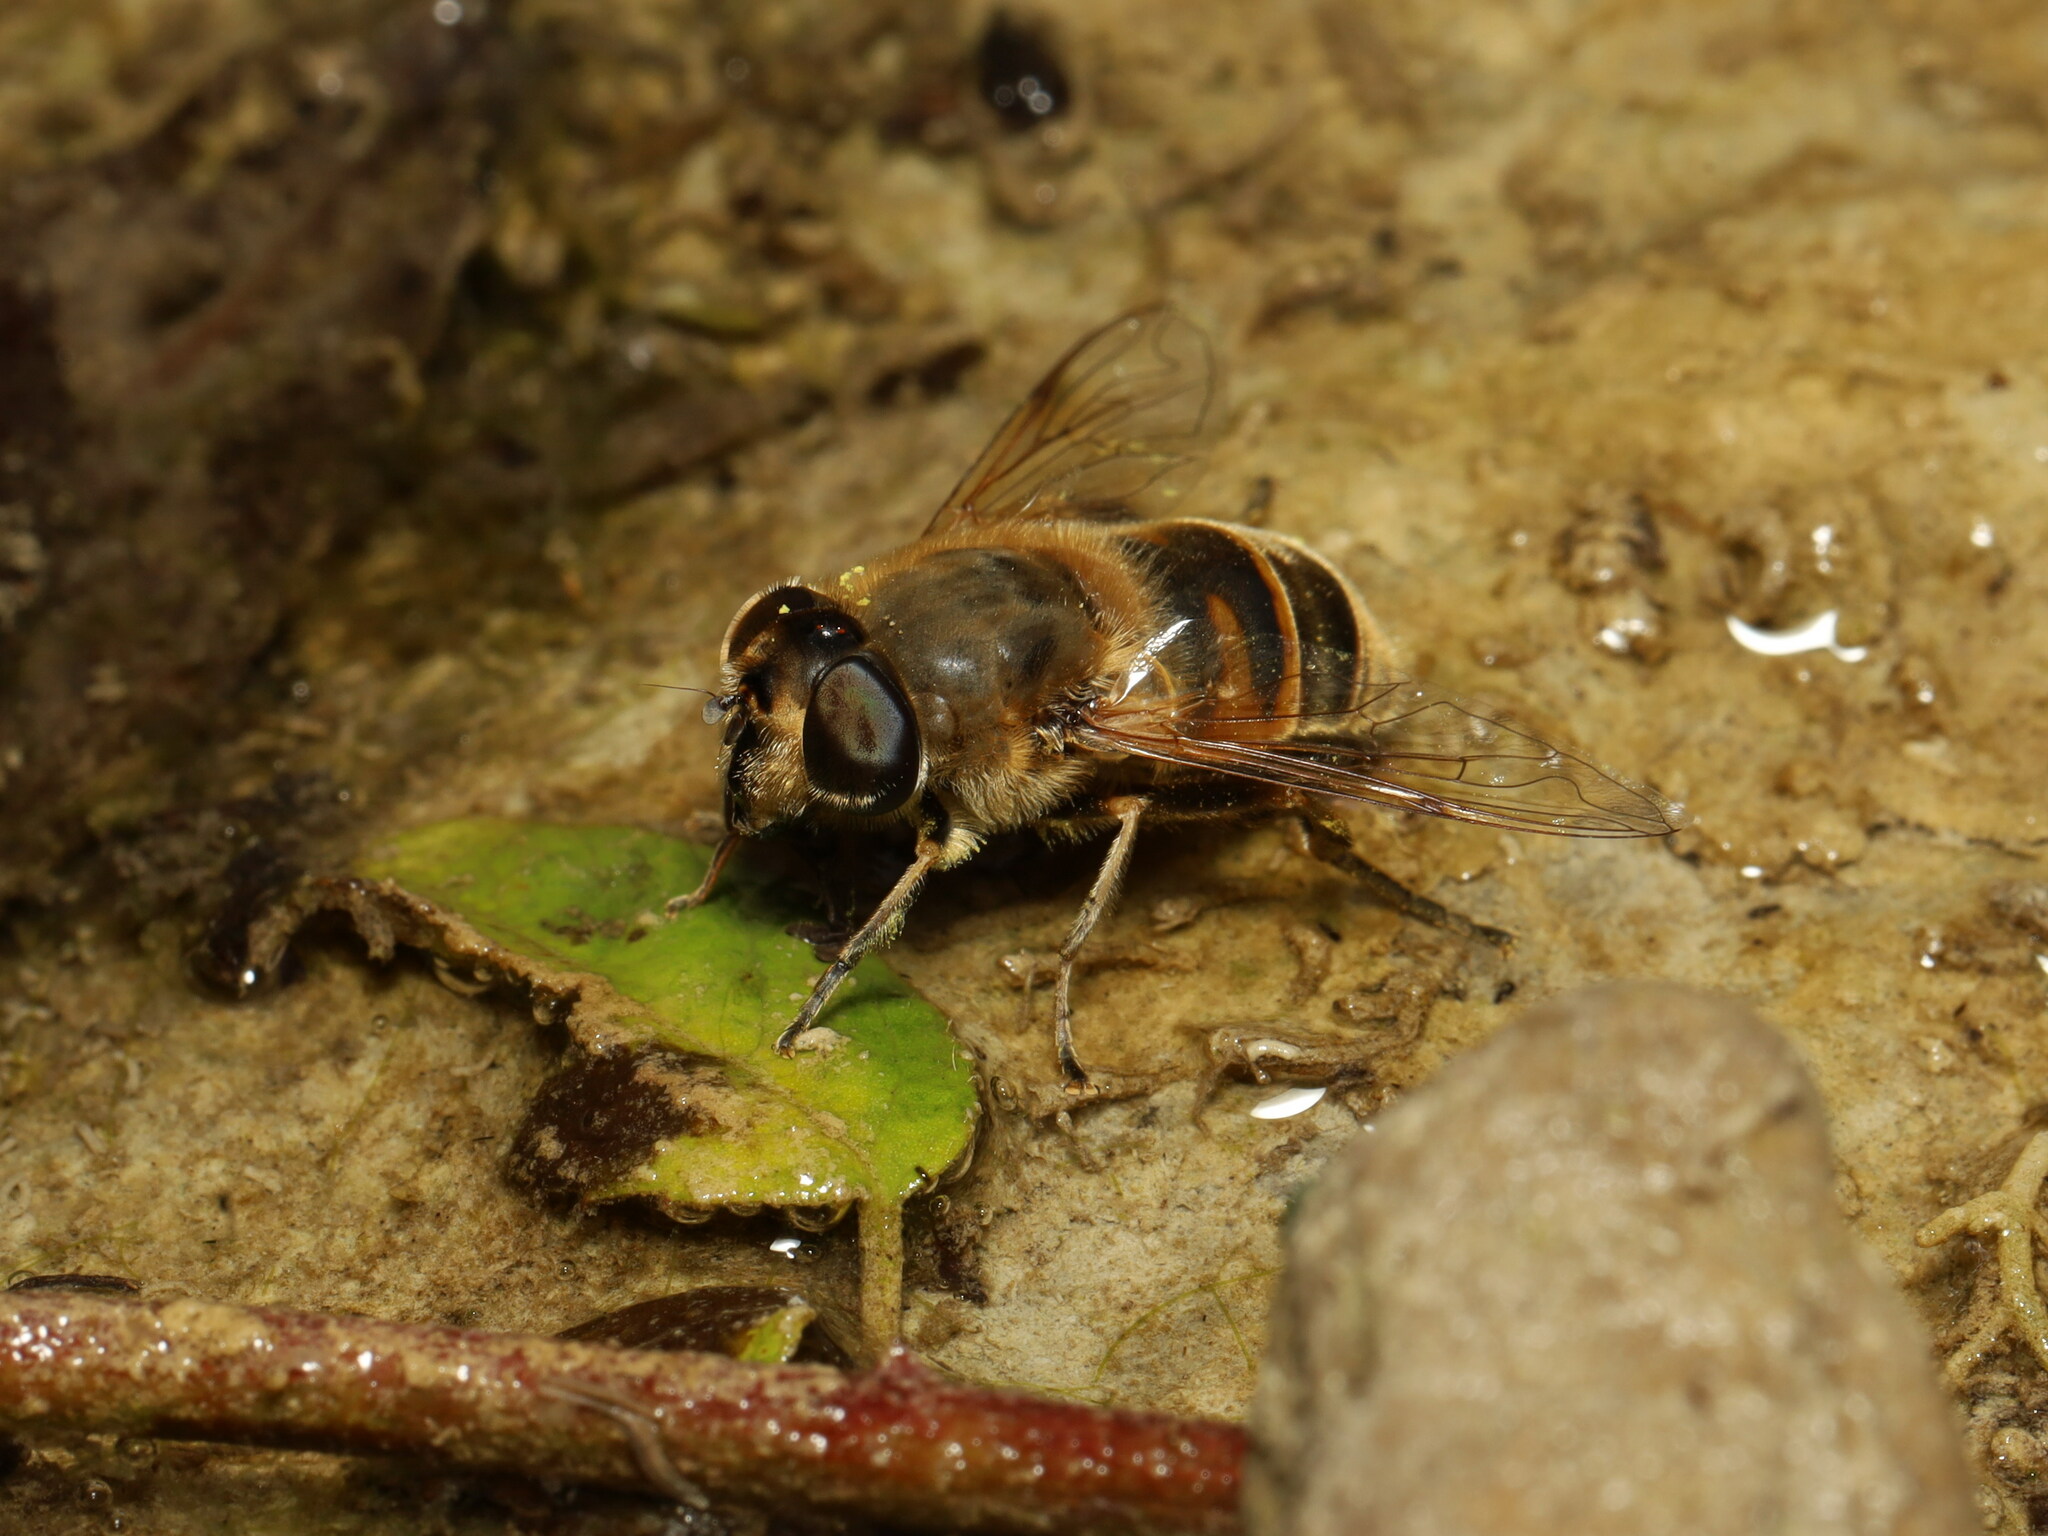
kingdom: Animalia
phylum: Arthropoda
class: Insecta
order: Diptera
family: Syrphidae
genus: Eristalis
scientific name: Eristalis tenax
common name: Drone fly
